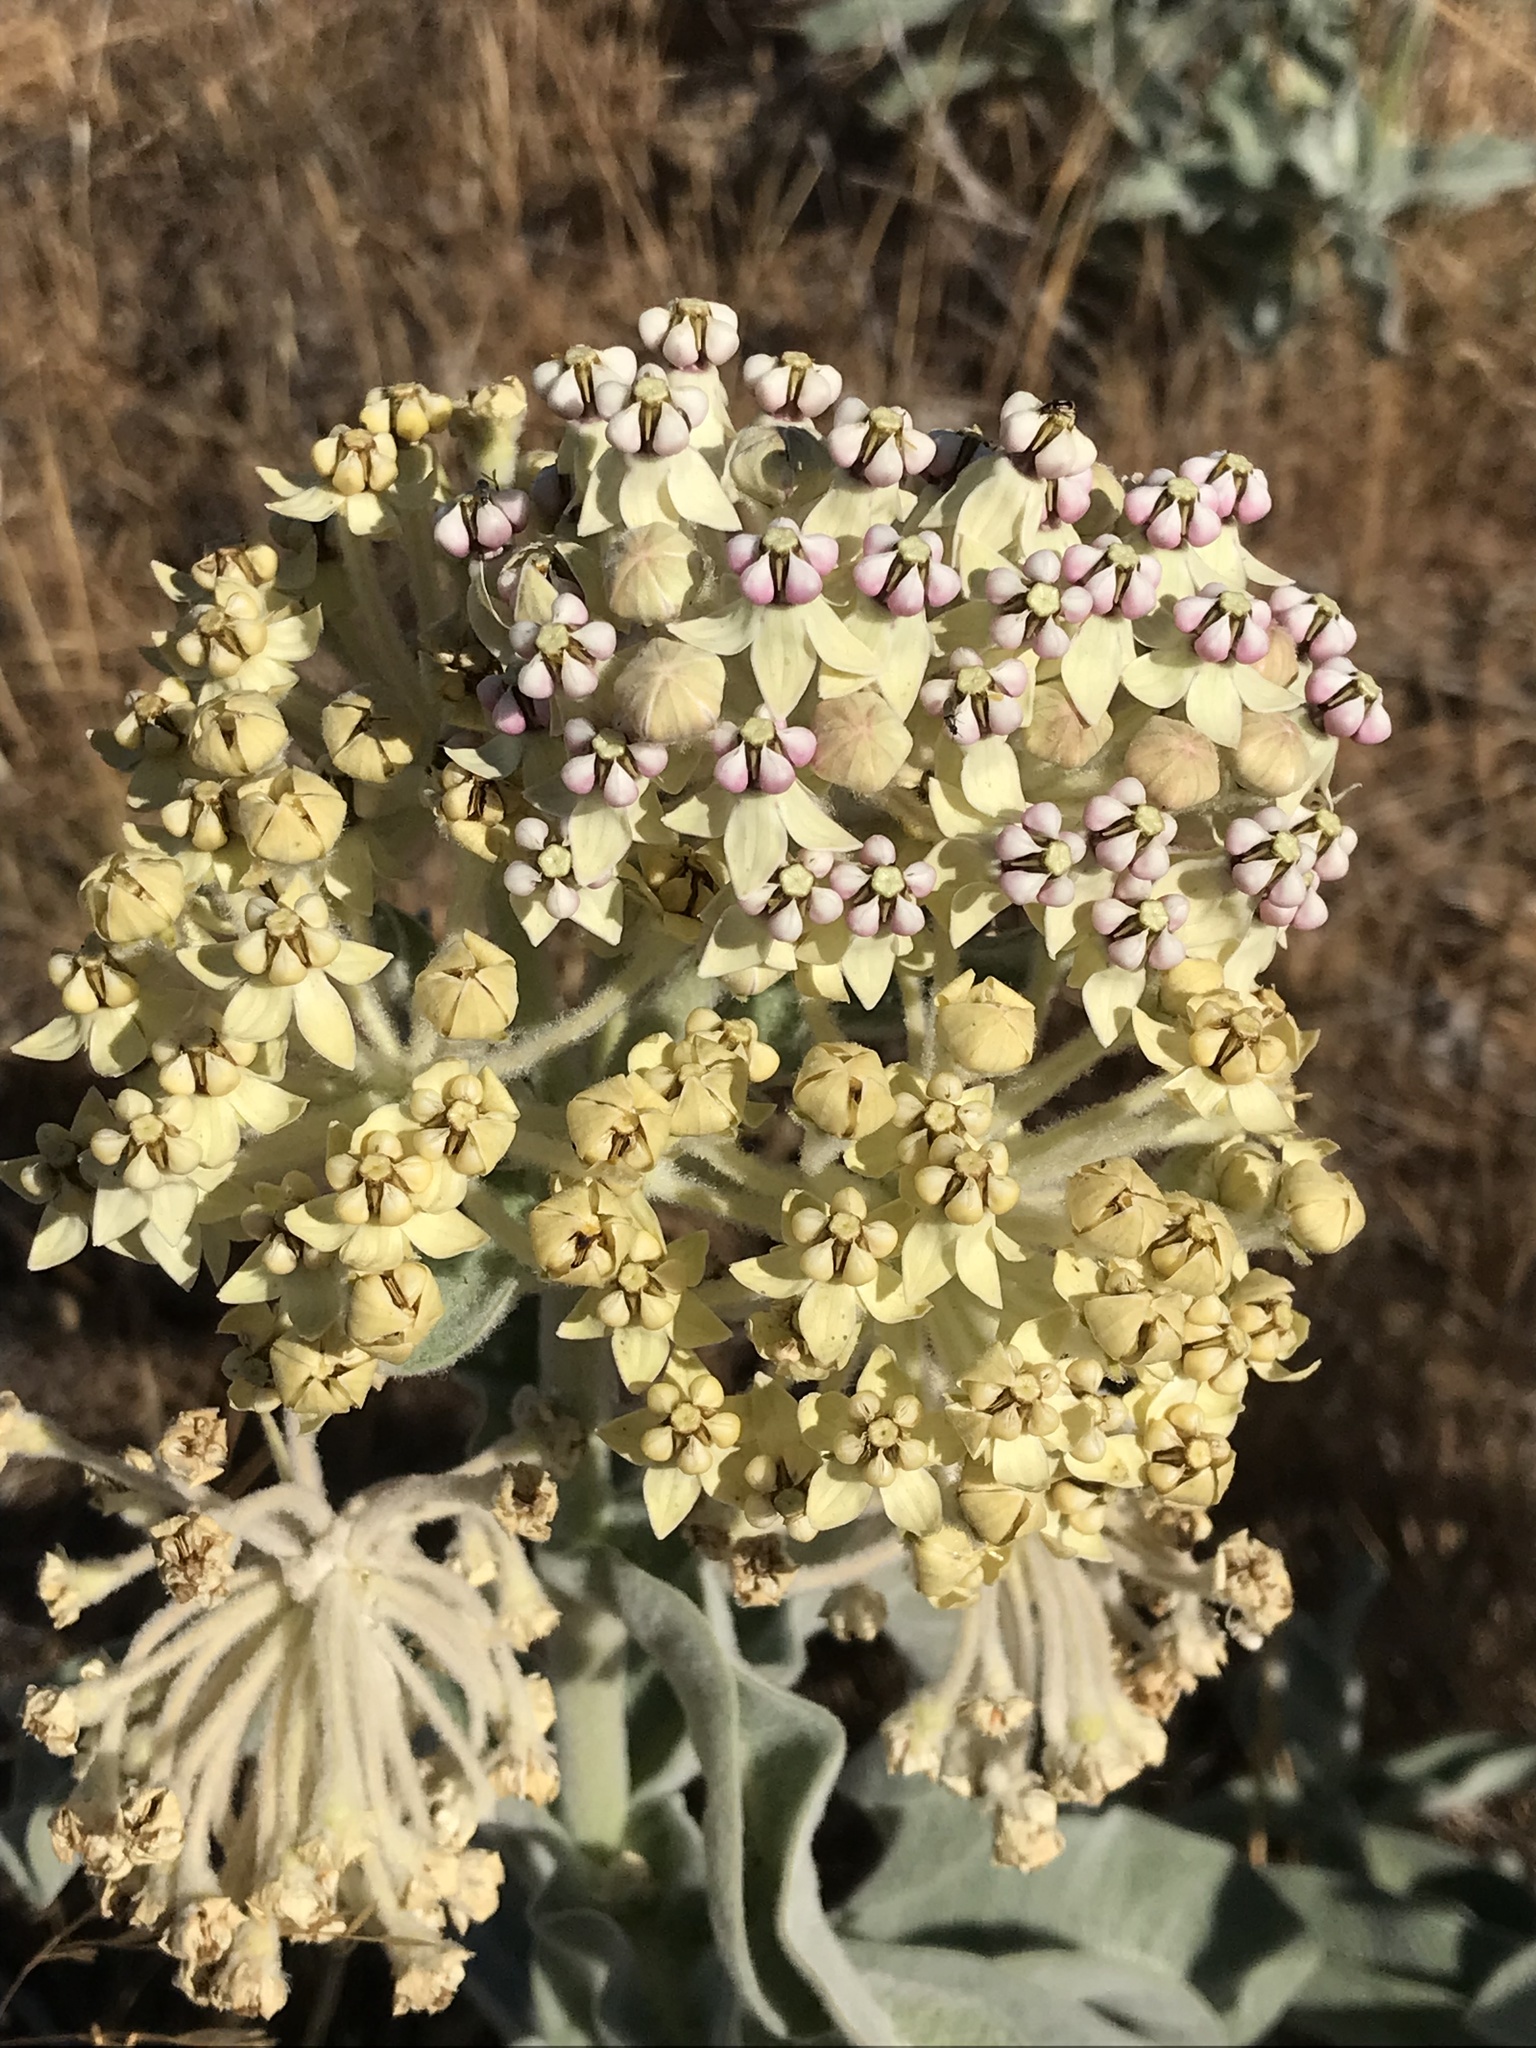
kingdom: Plantae
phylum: Tracheophyta
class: Magnoliopsida
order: Gentianales
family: Apocynaceae
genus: Asclepias
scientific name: Asclepias eriocarpa
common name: Indian milkweed
